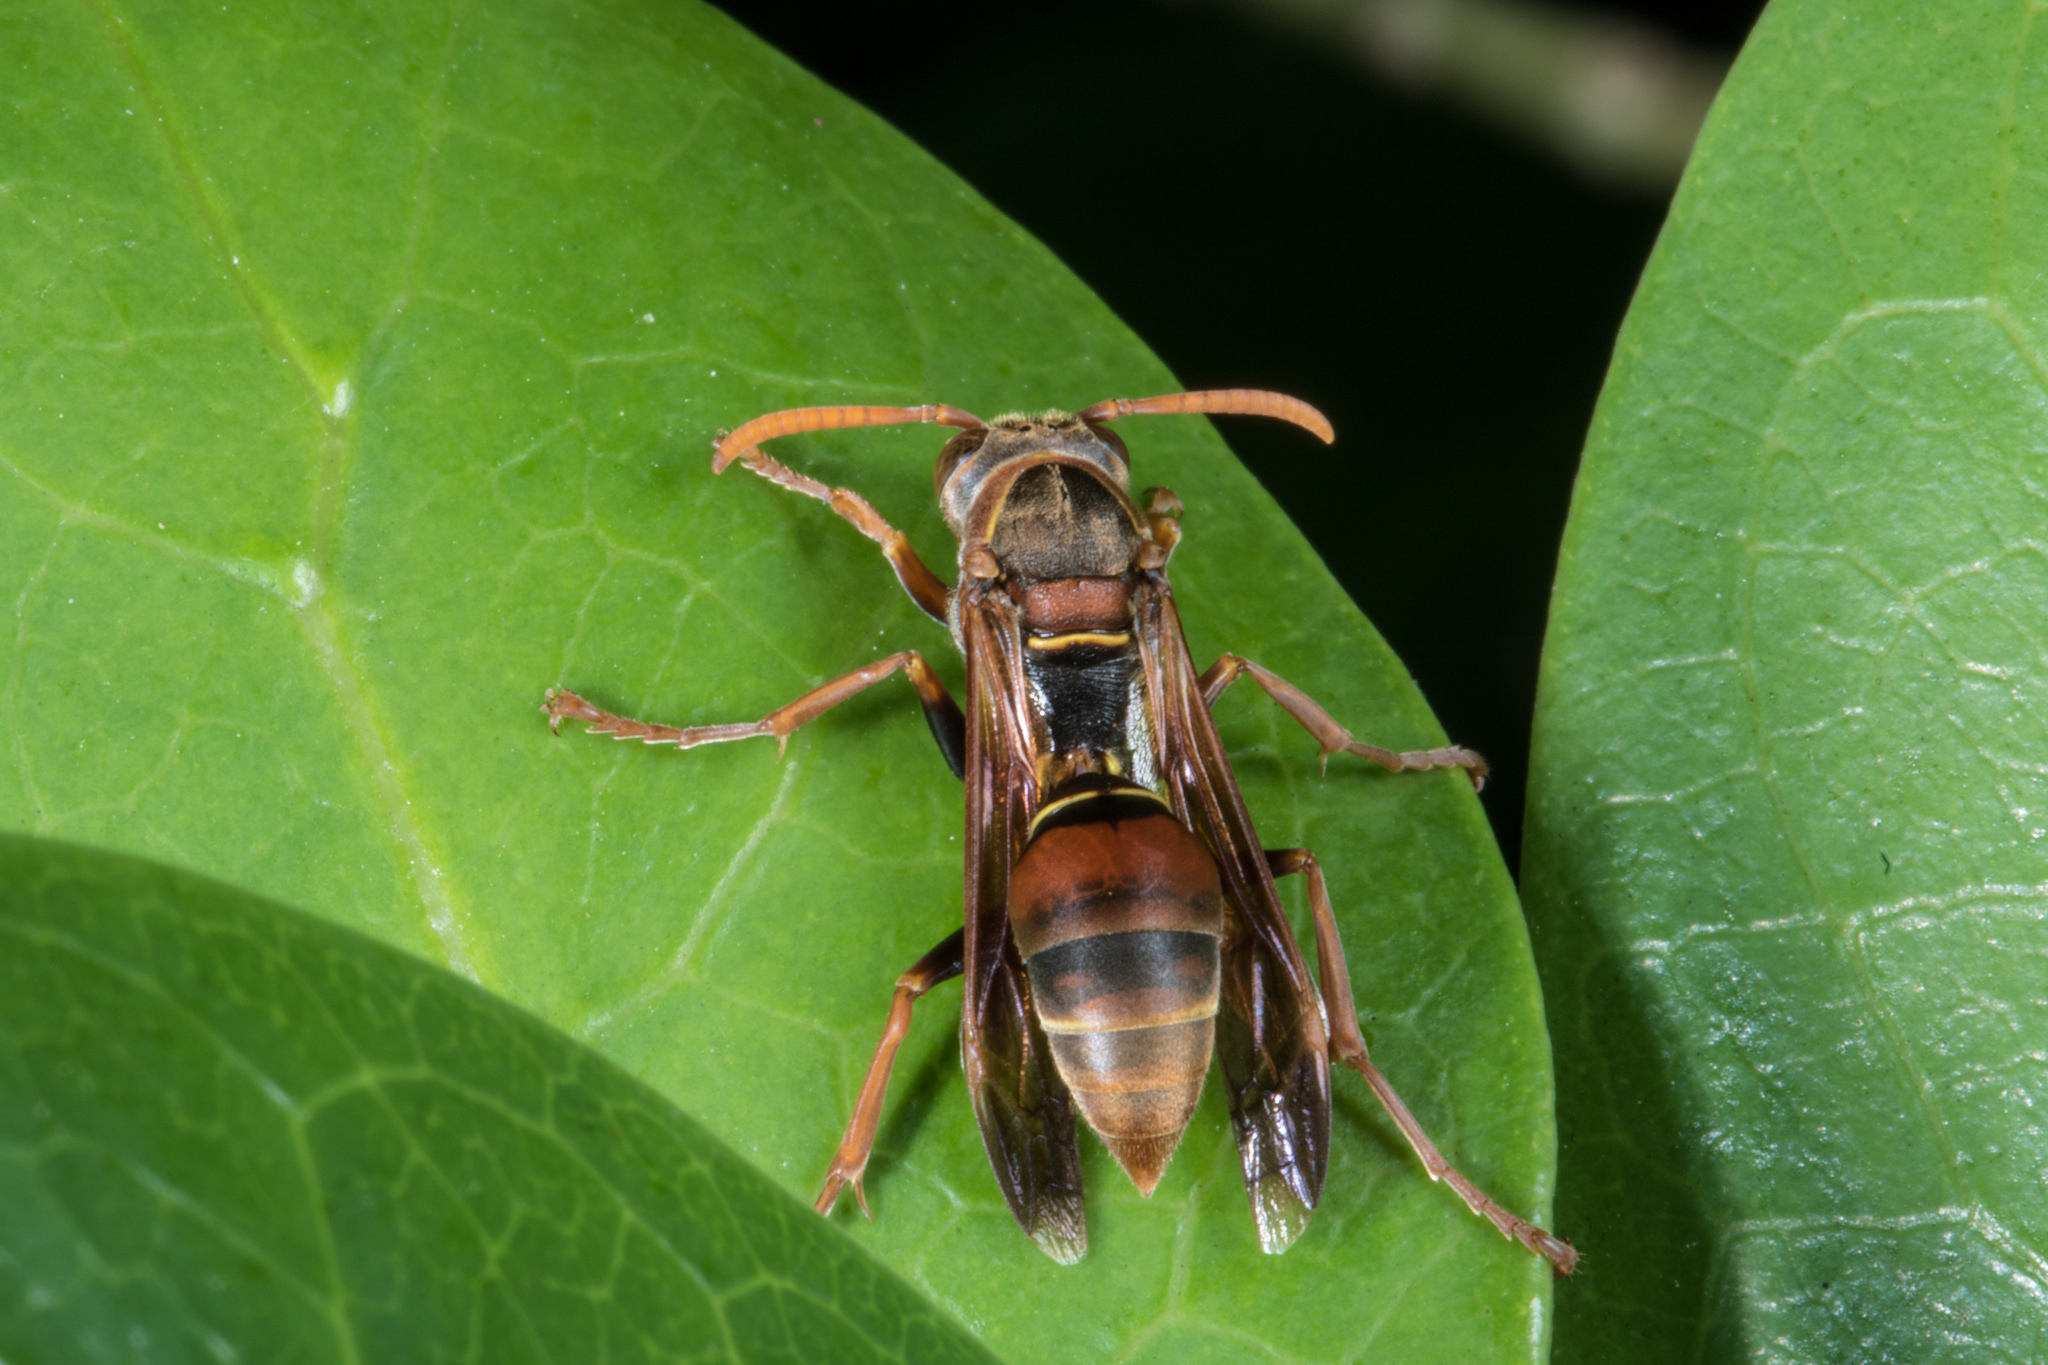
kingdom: Animalia
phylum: Arthropoda
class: Insecta
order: Hymenoptera
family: Eumenidae
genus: Polistes
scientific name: Polistes humilis
